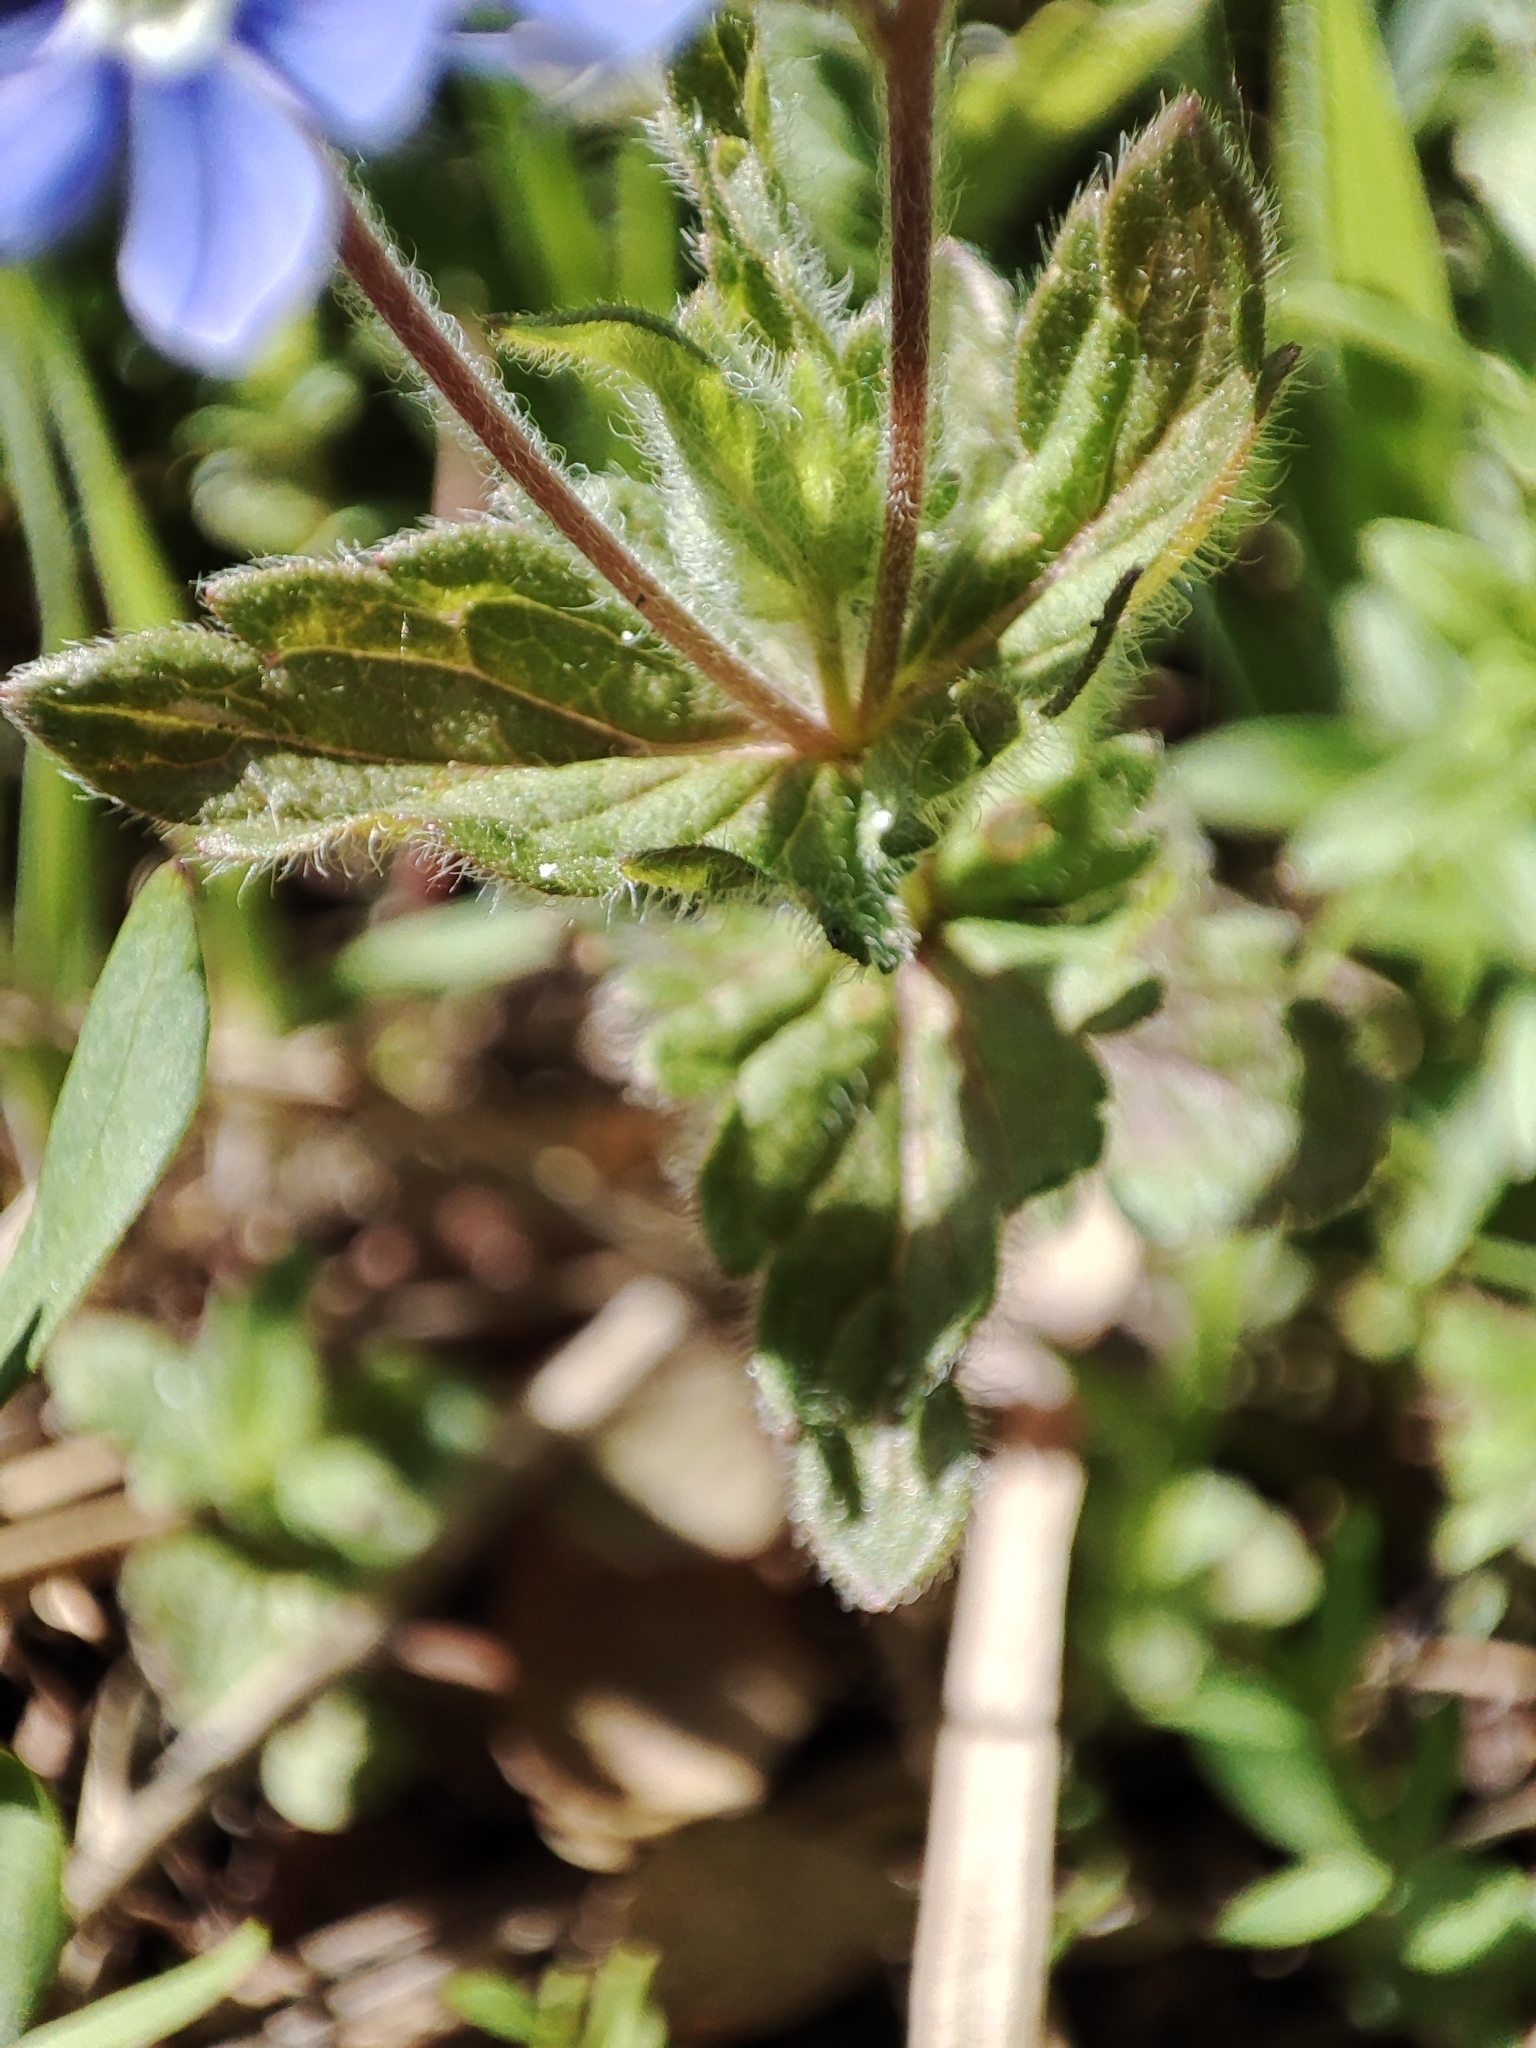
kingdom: Plantae
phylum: Tracheophyta
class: Magnoliopsida
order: Lamiales
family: Plantaginaceae
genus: Veronica
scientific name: Veronica chamaedrys
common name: Germander speedwell
